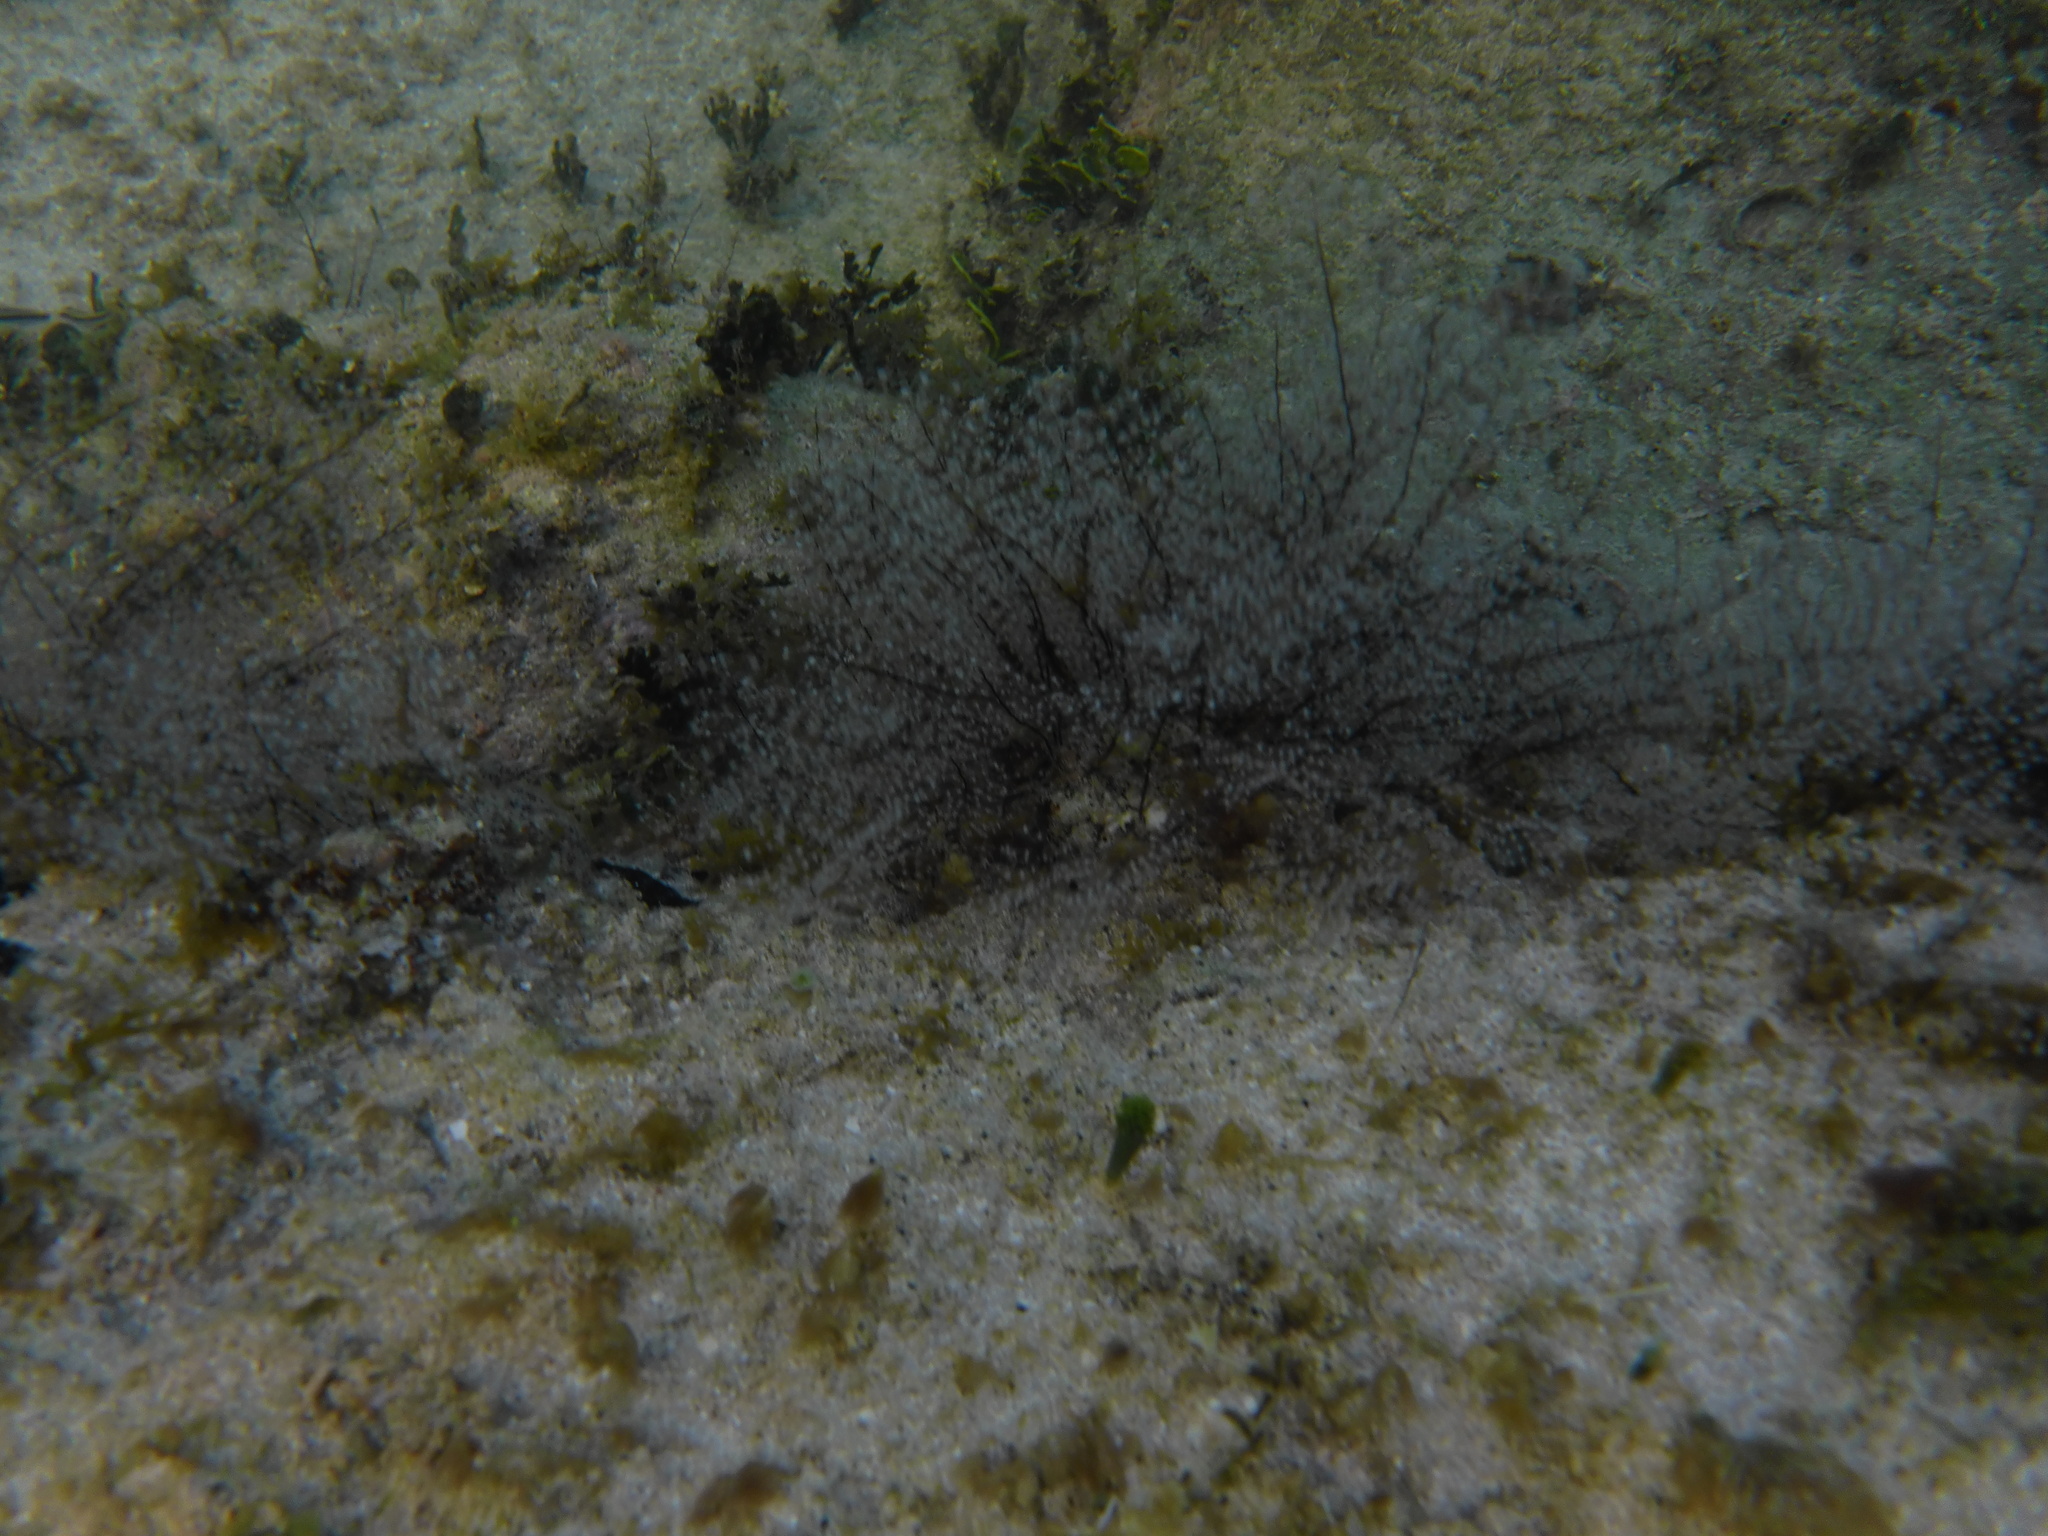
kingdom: Animalia
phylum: Cnidaria
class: Hydrozoa
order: Anthoathecata
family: Pennariidae
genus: Pennaria
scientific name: Pennaria disticha
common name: Feather hydroid
